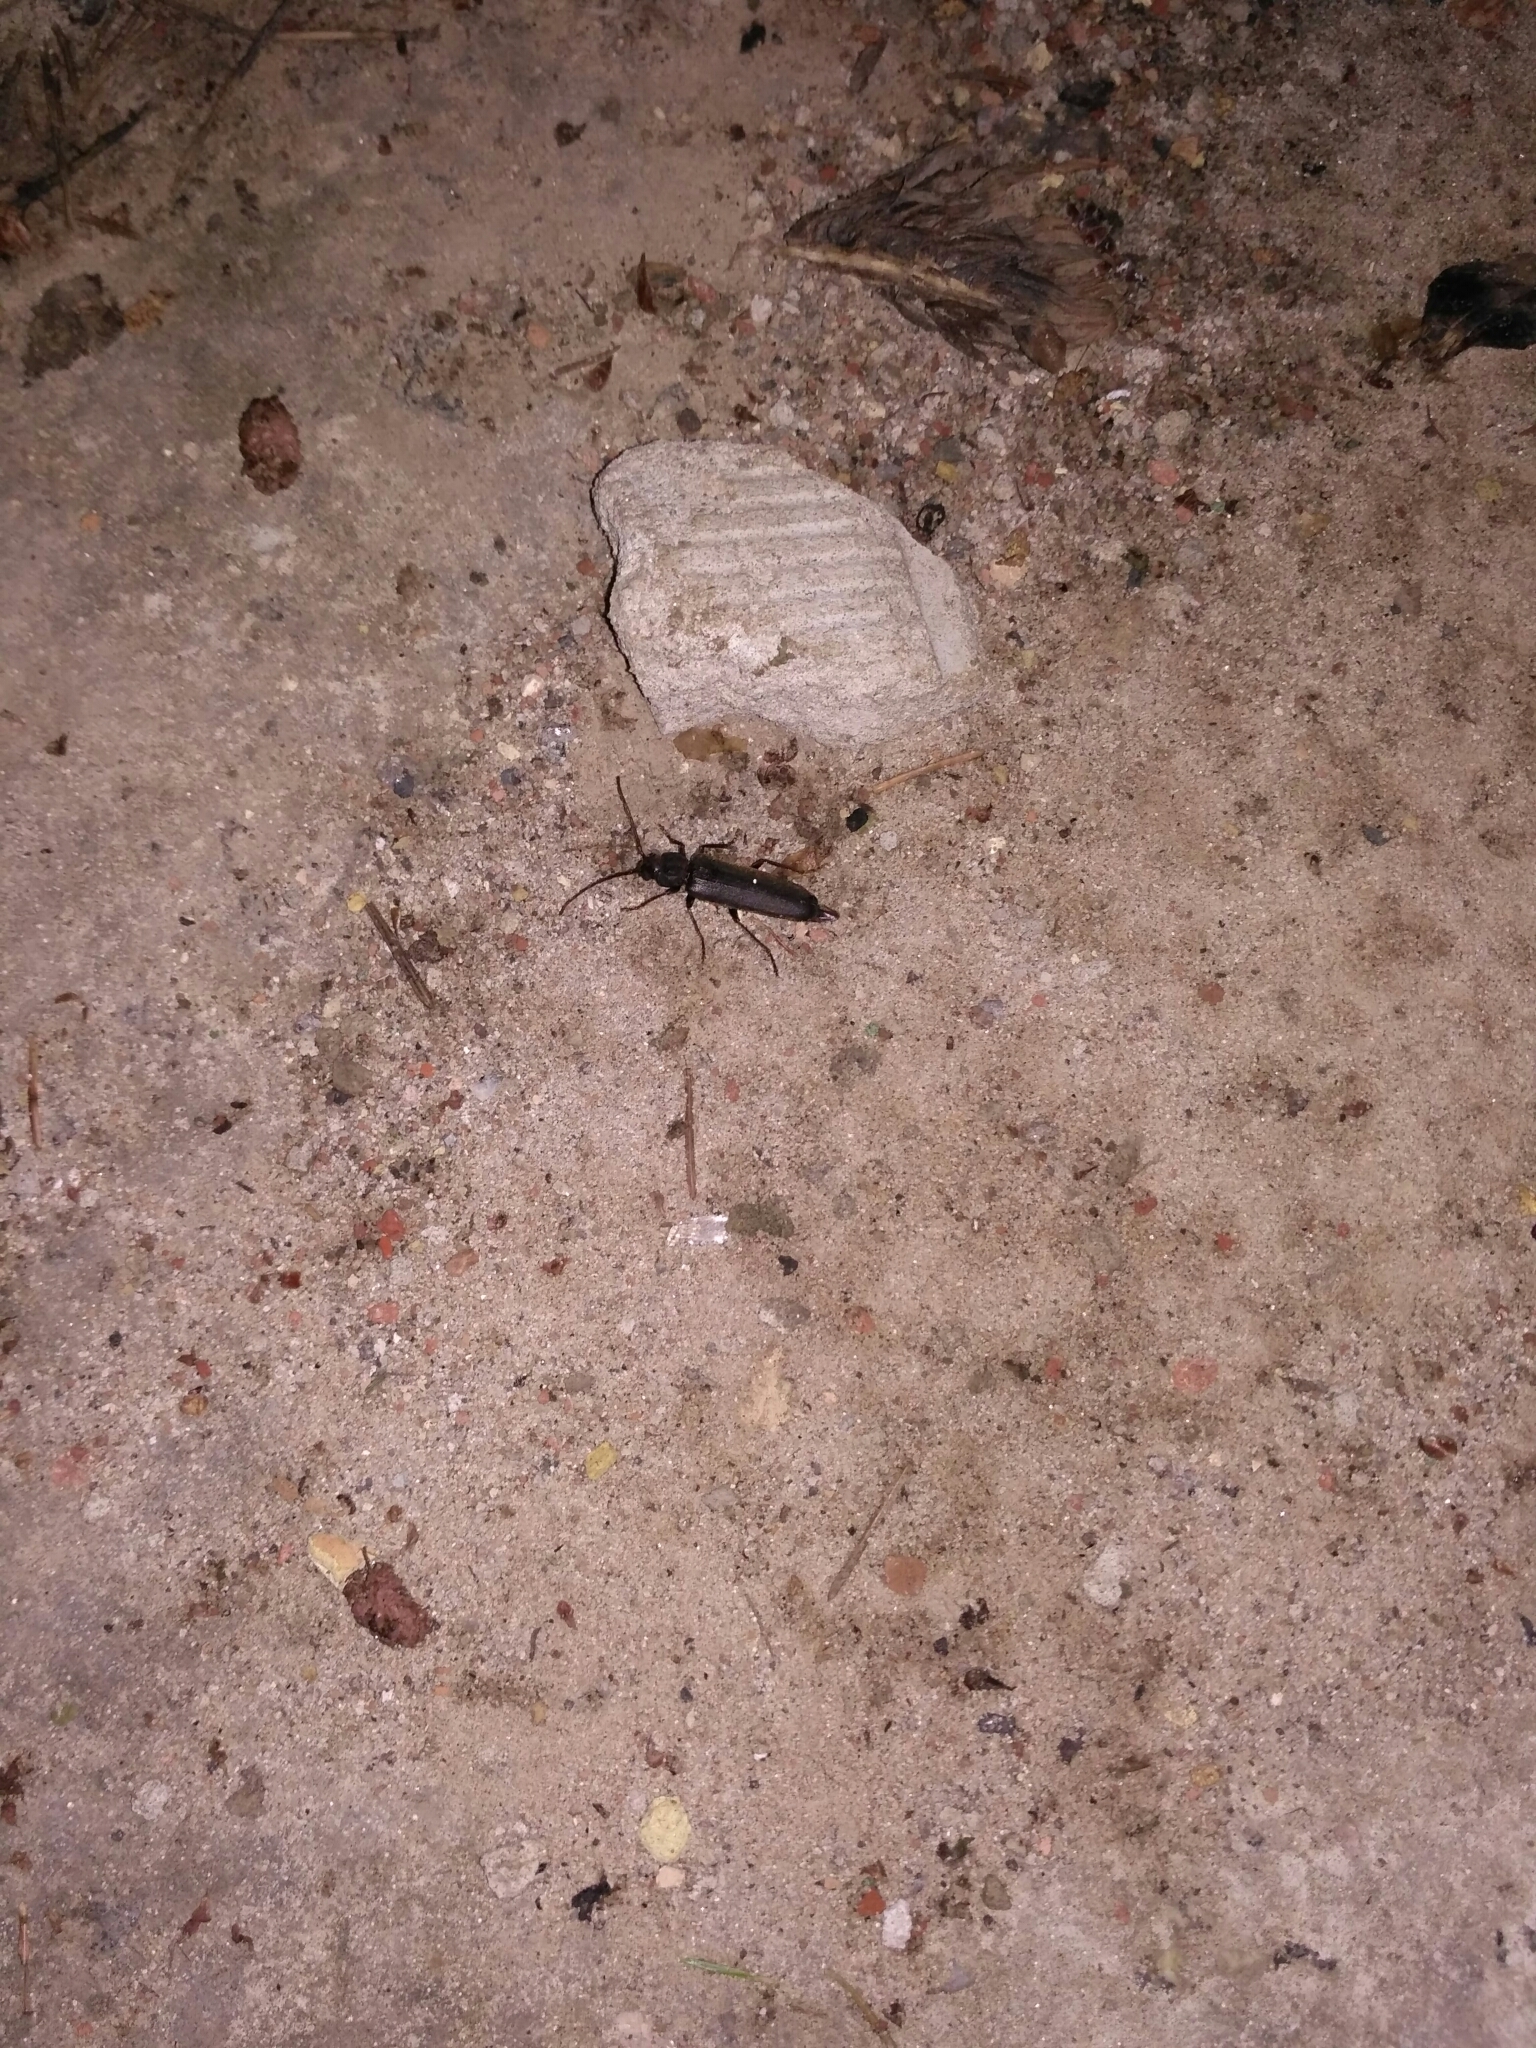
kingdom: Animalia
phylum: Arthropoda
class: Insecta
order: Coleoptera
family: Cerambycidae
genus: Arhopalus
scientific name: Arhopalus rusticus
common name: Rust pine borer
